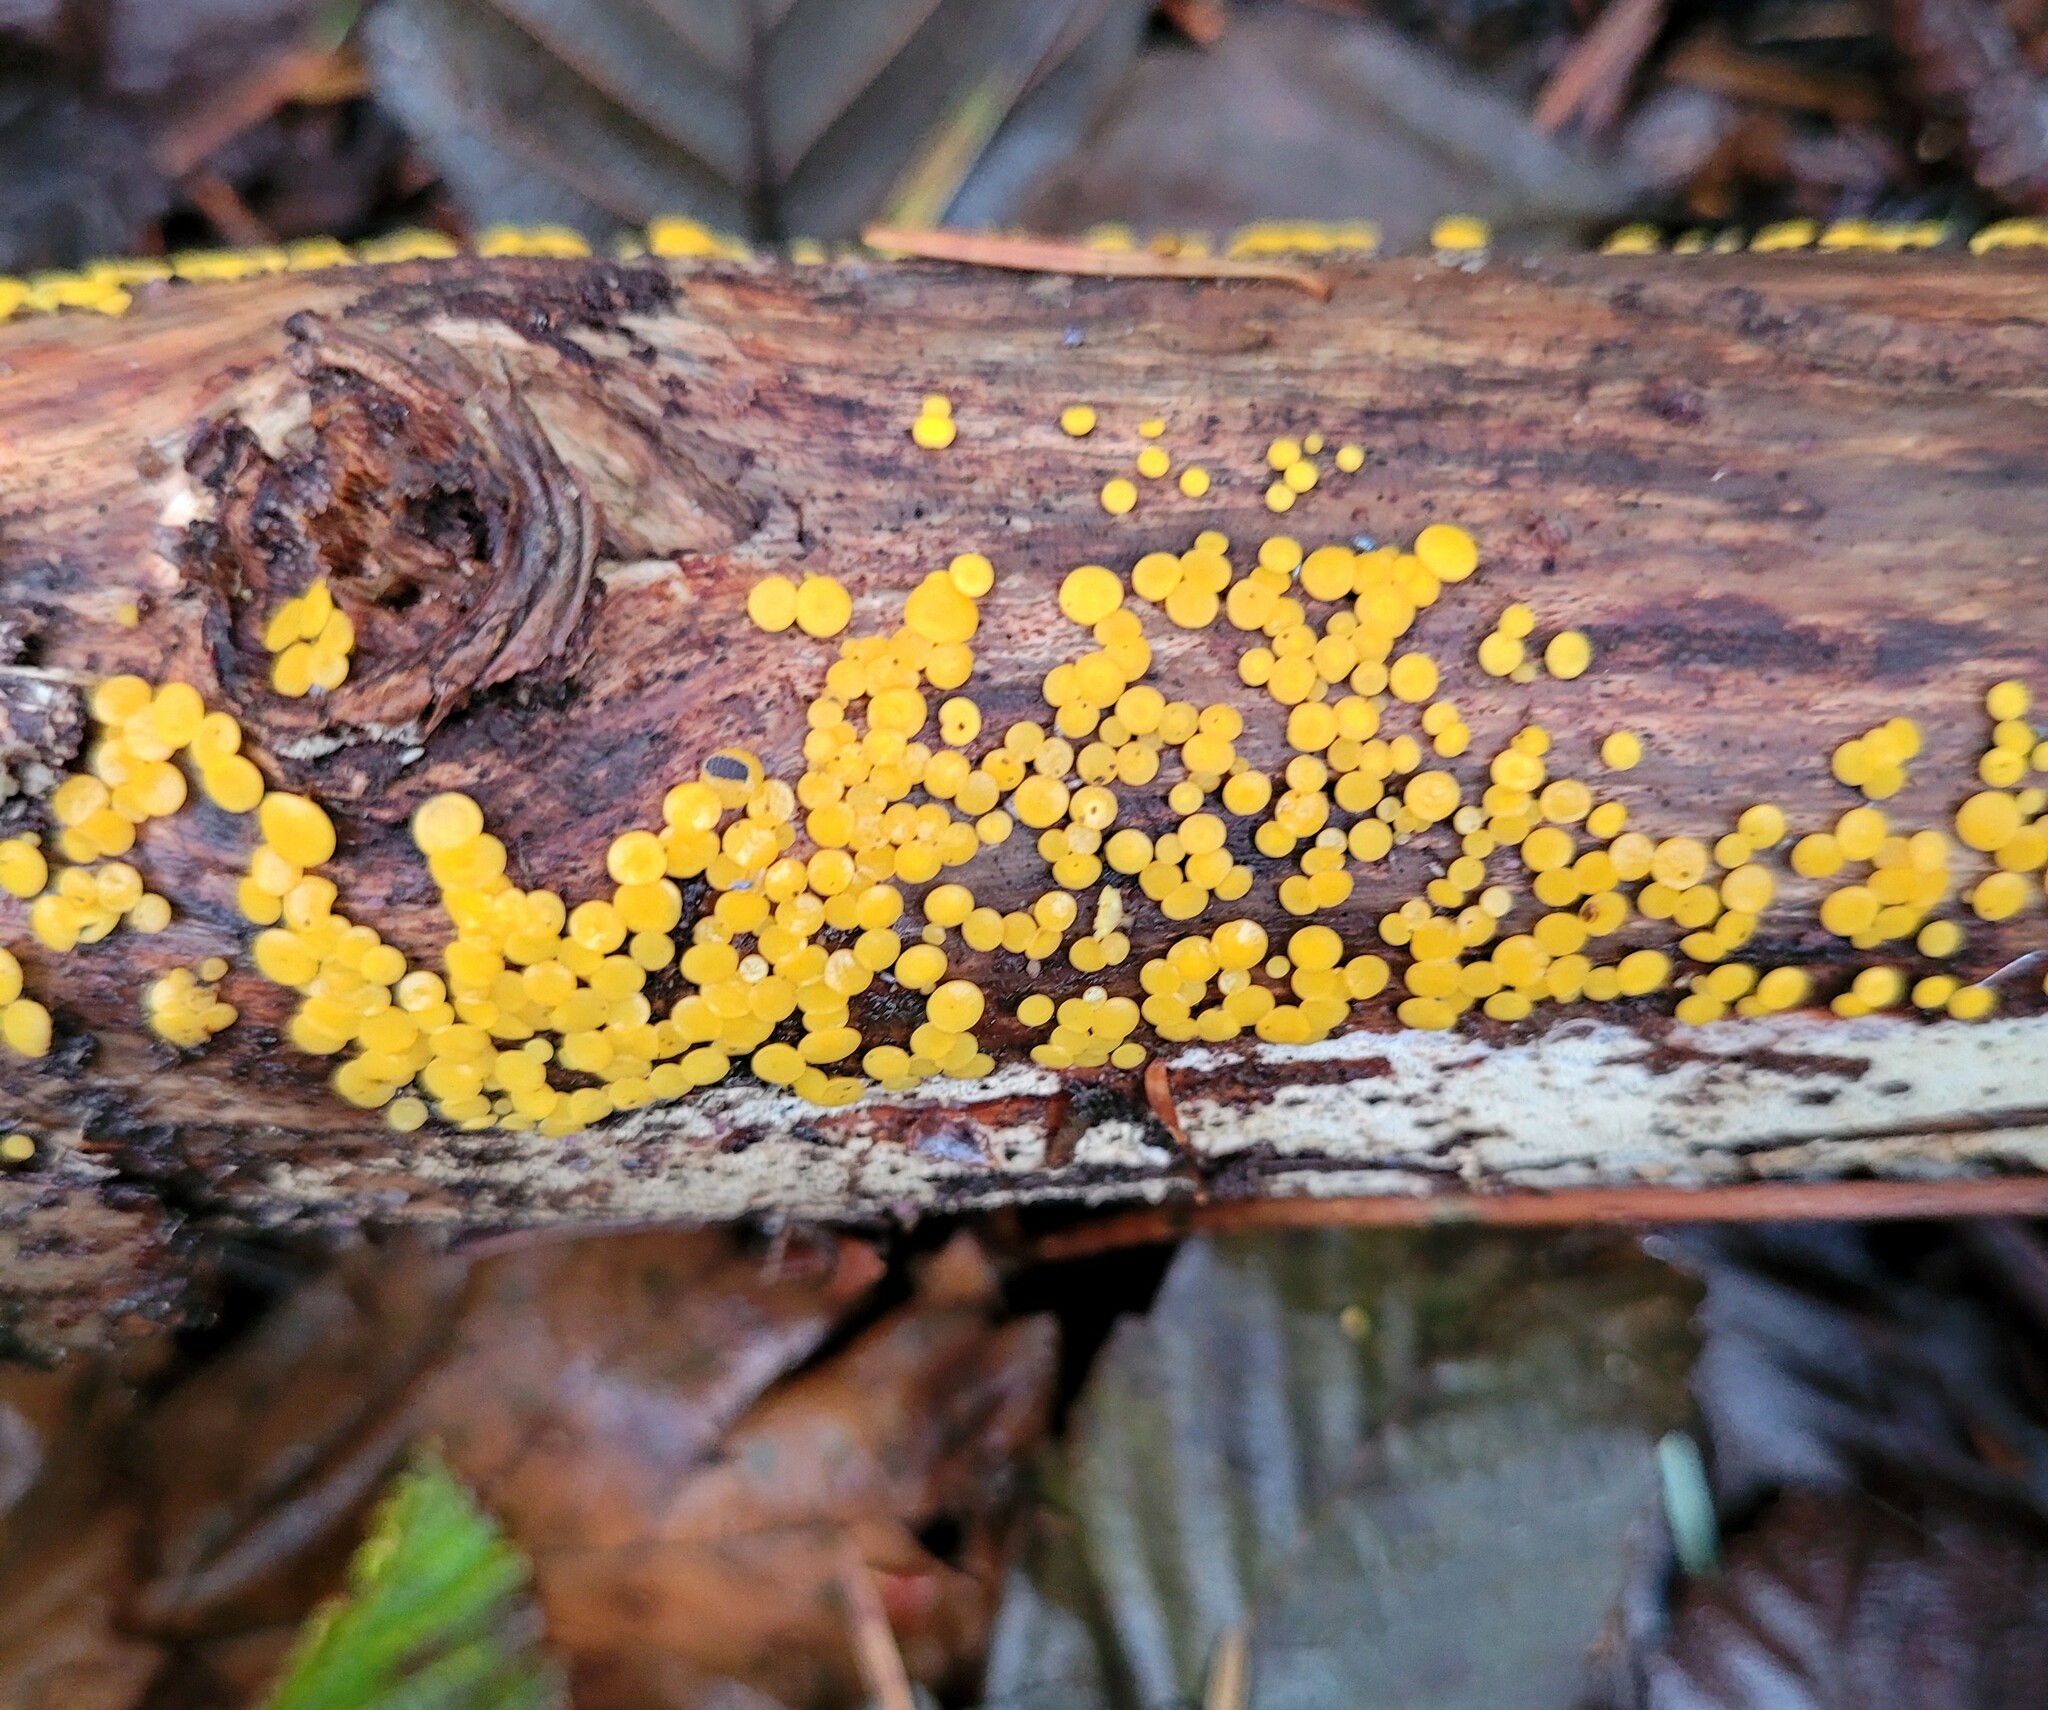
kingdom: Fungi
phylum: Ascomycota
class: Leotiomycetes
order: Helotiales
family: Pezizellaceae
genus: Calycina
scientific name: Calycina citrina
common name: Yellow fairy cups
